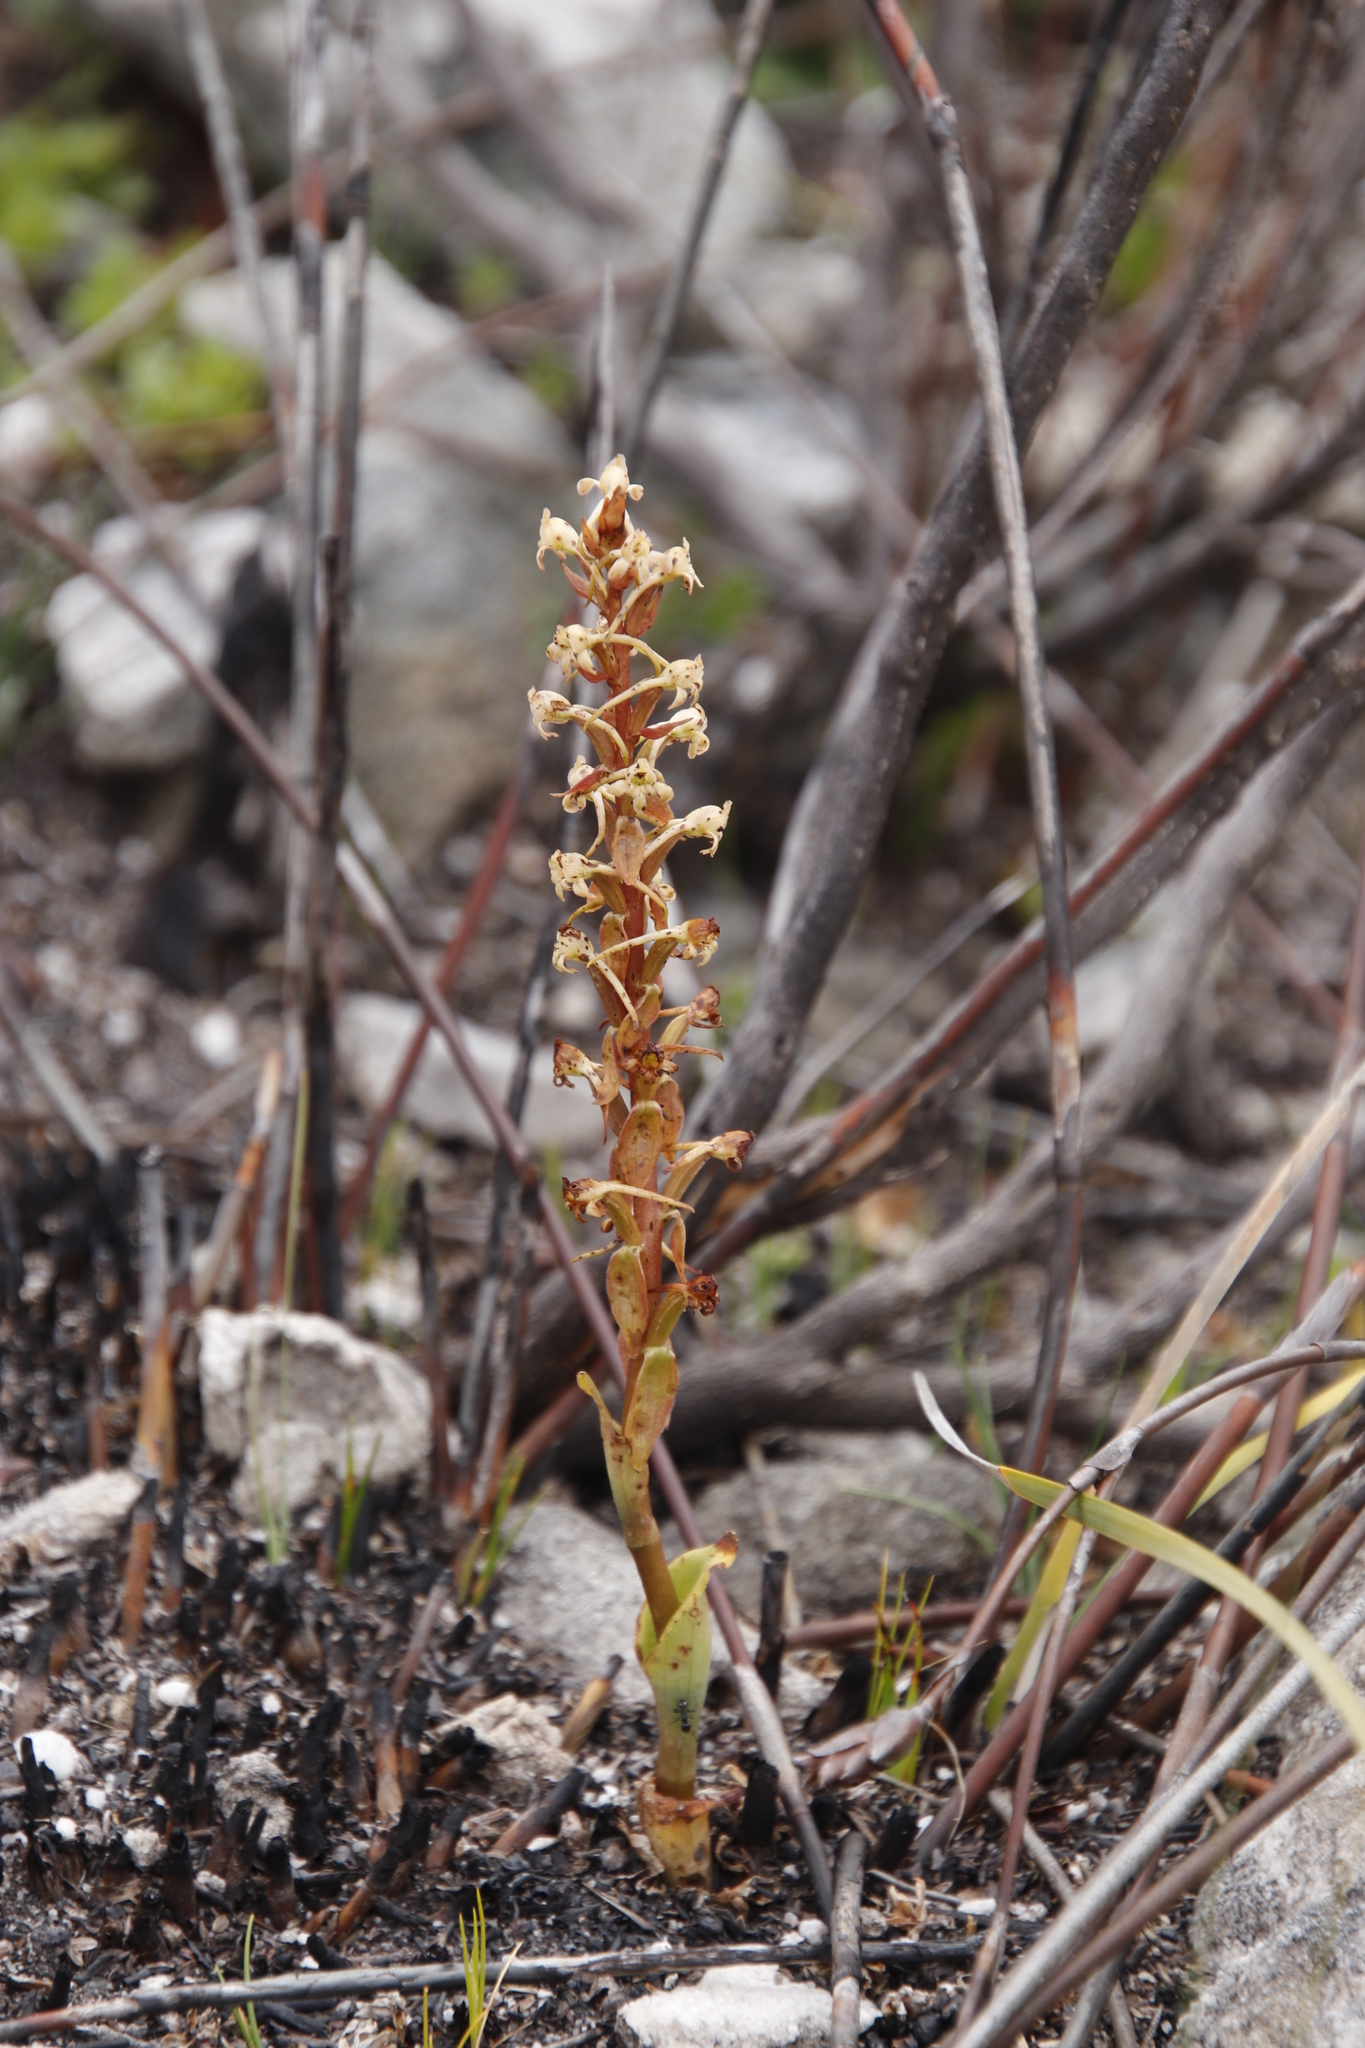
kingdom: Plantae
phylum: Tracheophyta
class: Liliopsida
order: Asparagales
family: Orchidaceae
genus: Satyrium
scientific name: Satyrium humile
